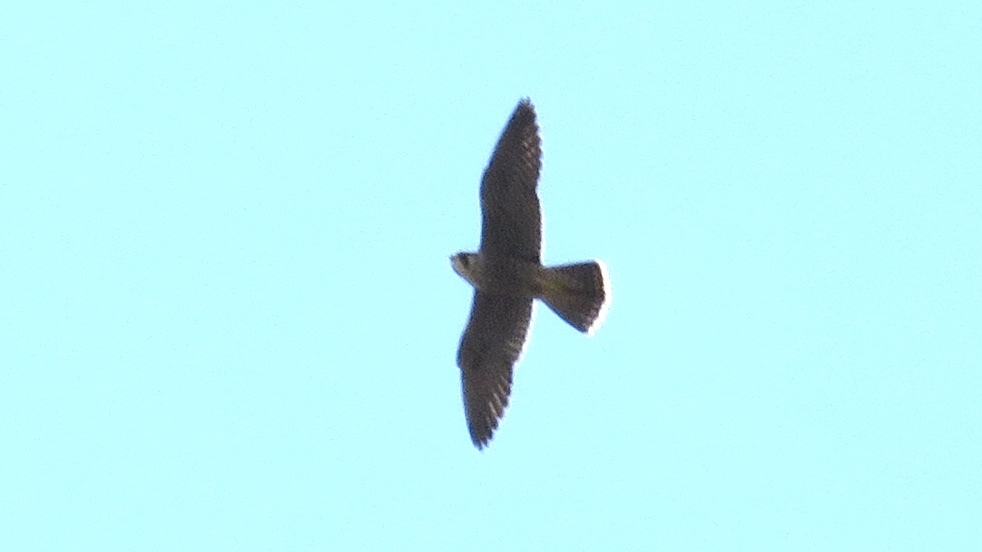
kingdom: Animalia
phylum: Chordata
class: Aves
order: Falconiformes
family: Falconidae
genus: Falco
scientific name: Falco peregrinus
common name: Peregrine falcon
